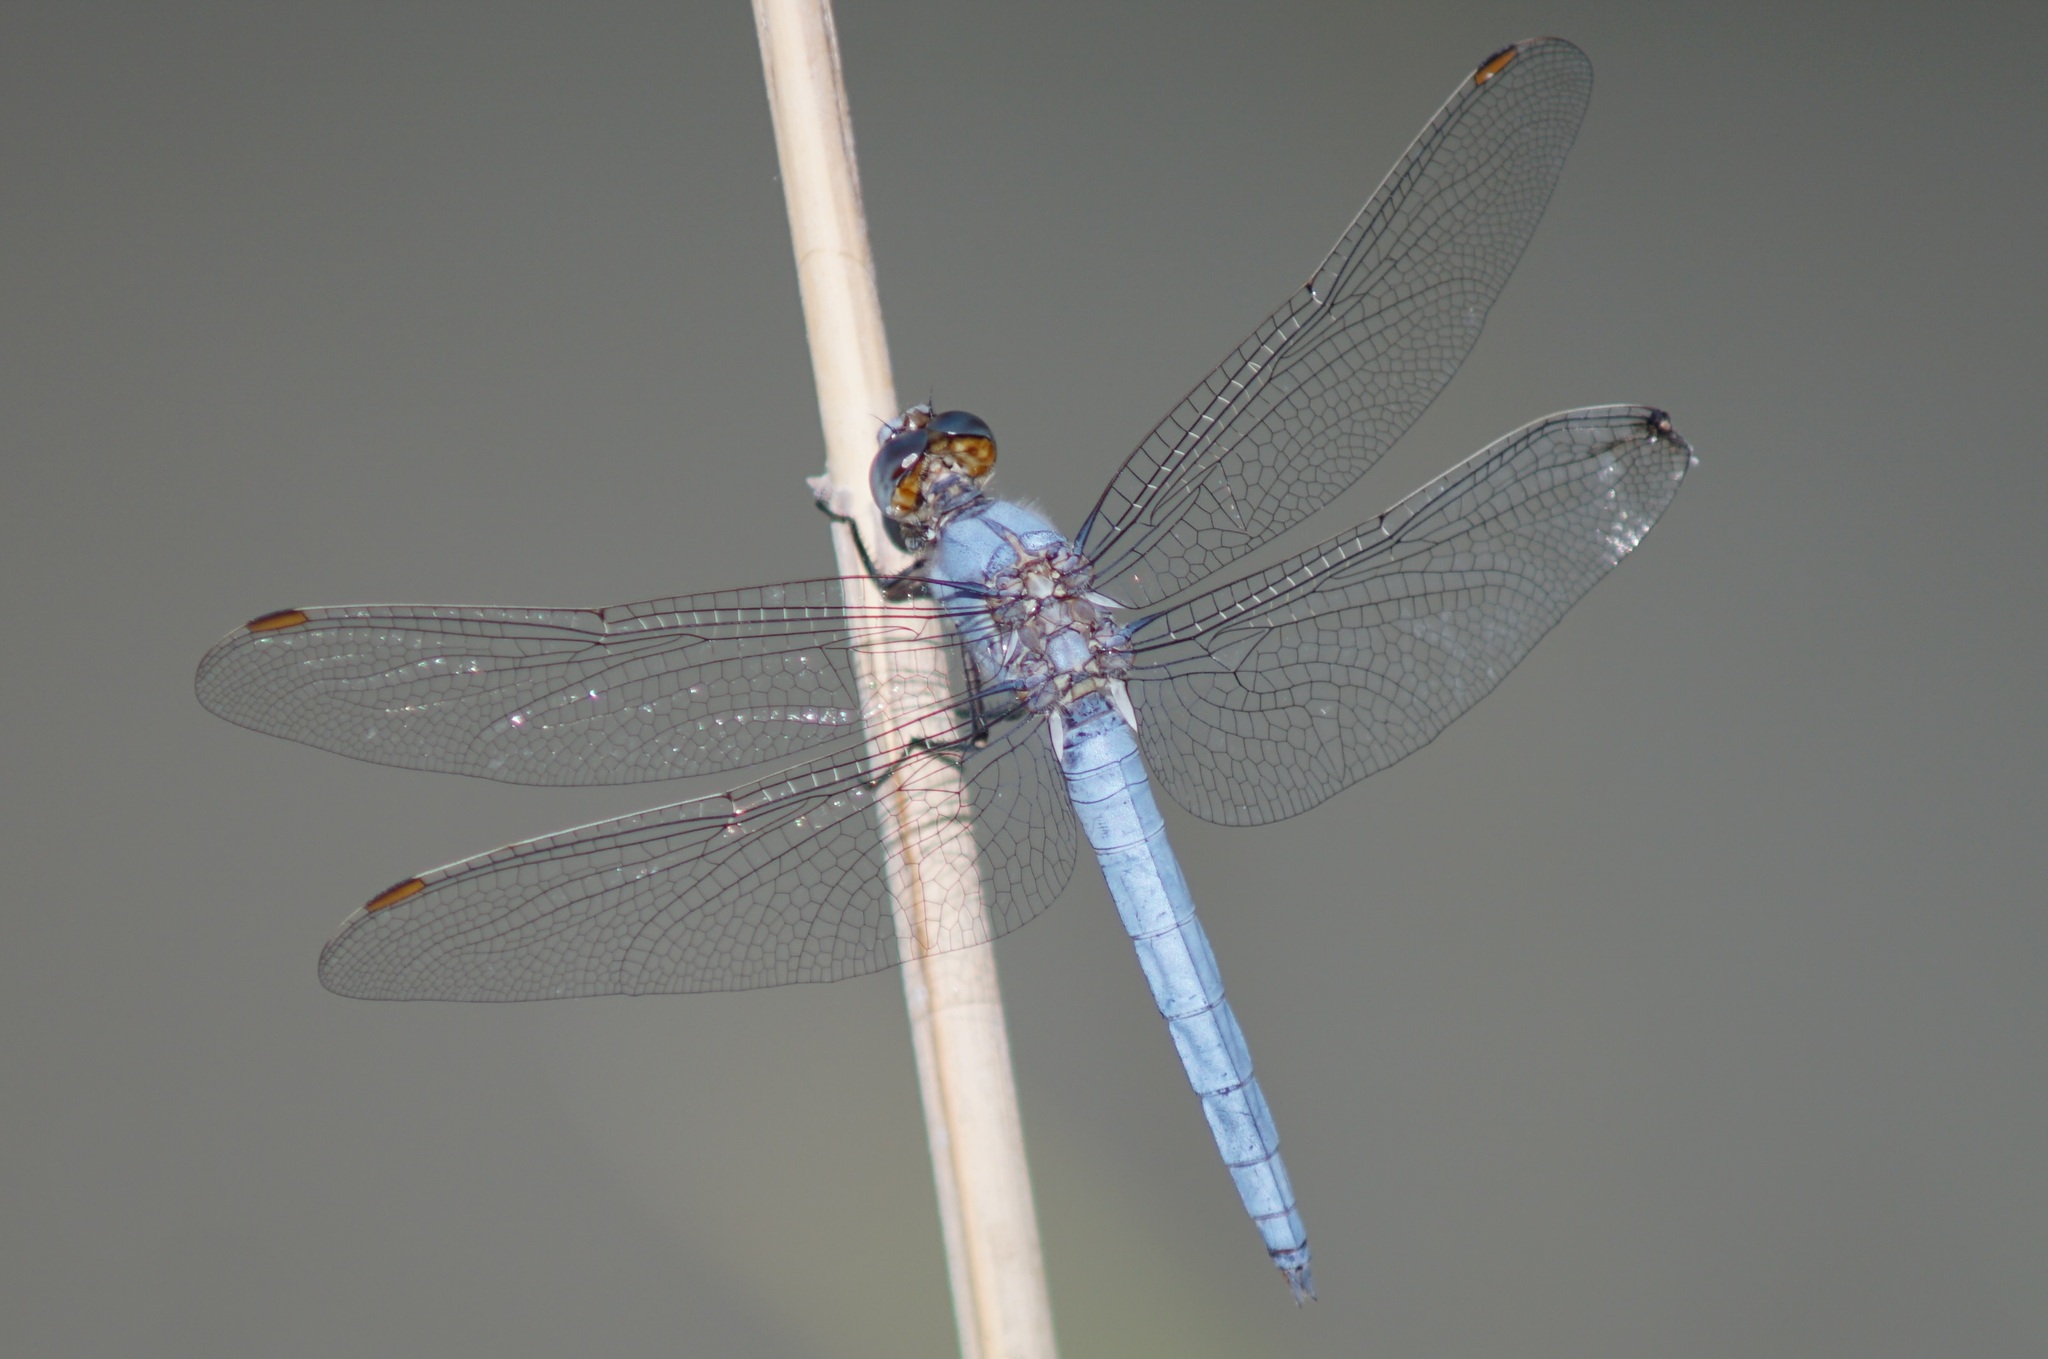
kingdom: Animalia
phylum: Arthropoda
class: Insecta
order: Odonata
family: Libellulidae
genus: Orthetrum
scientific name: Orthetrum brunneum
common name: Southern skimmer
